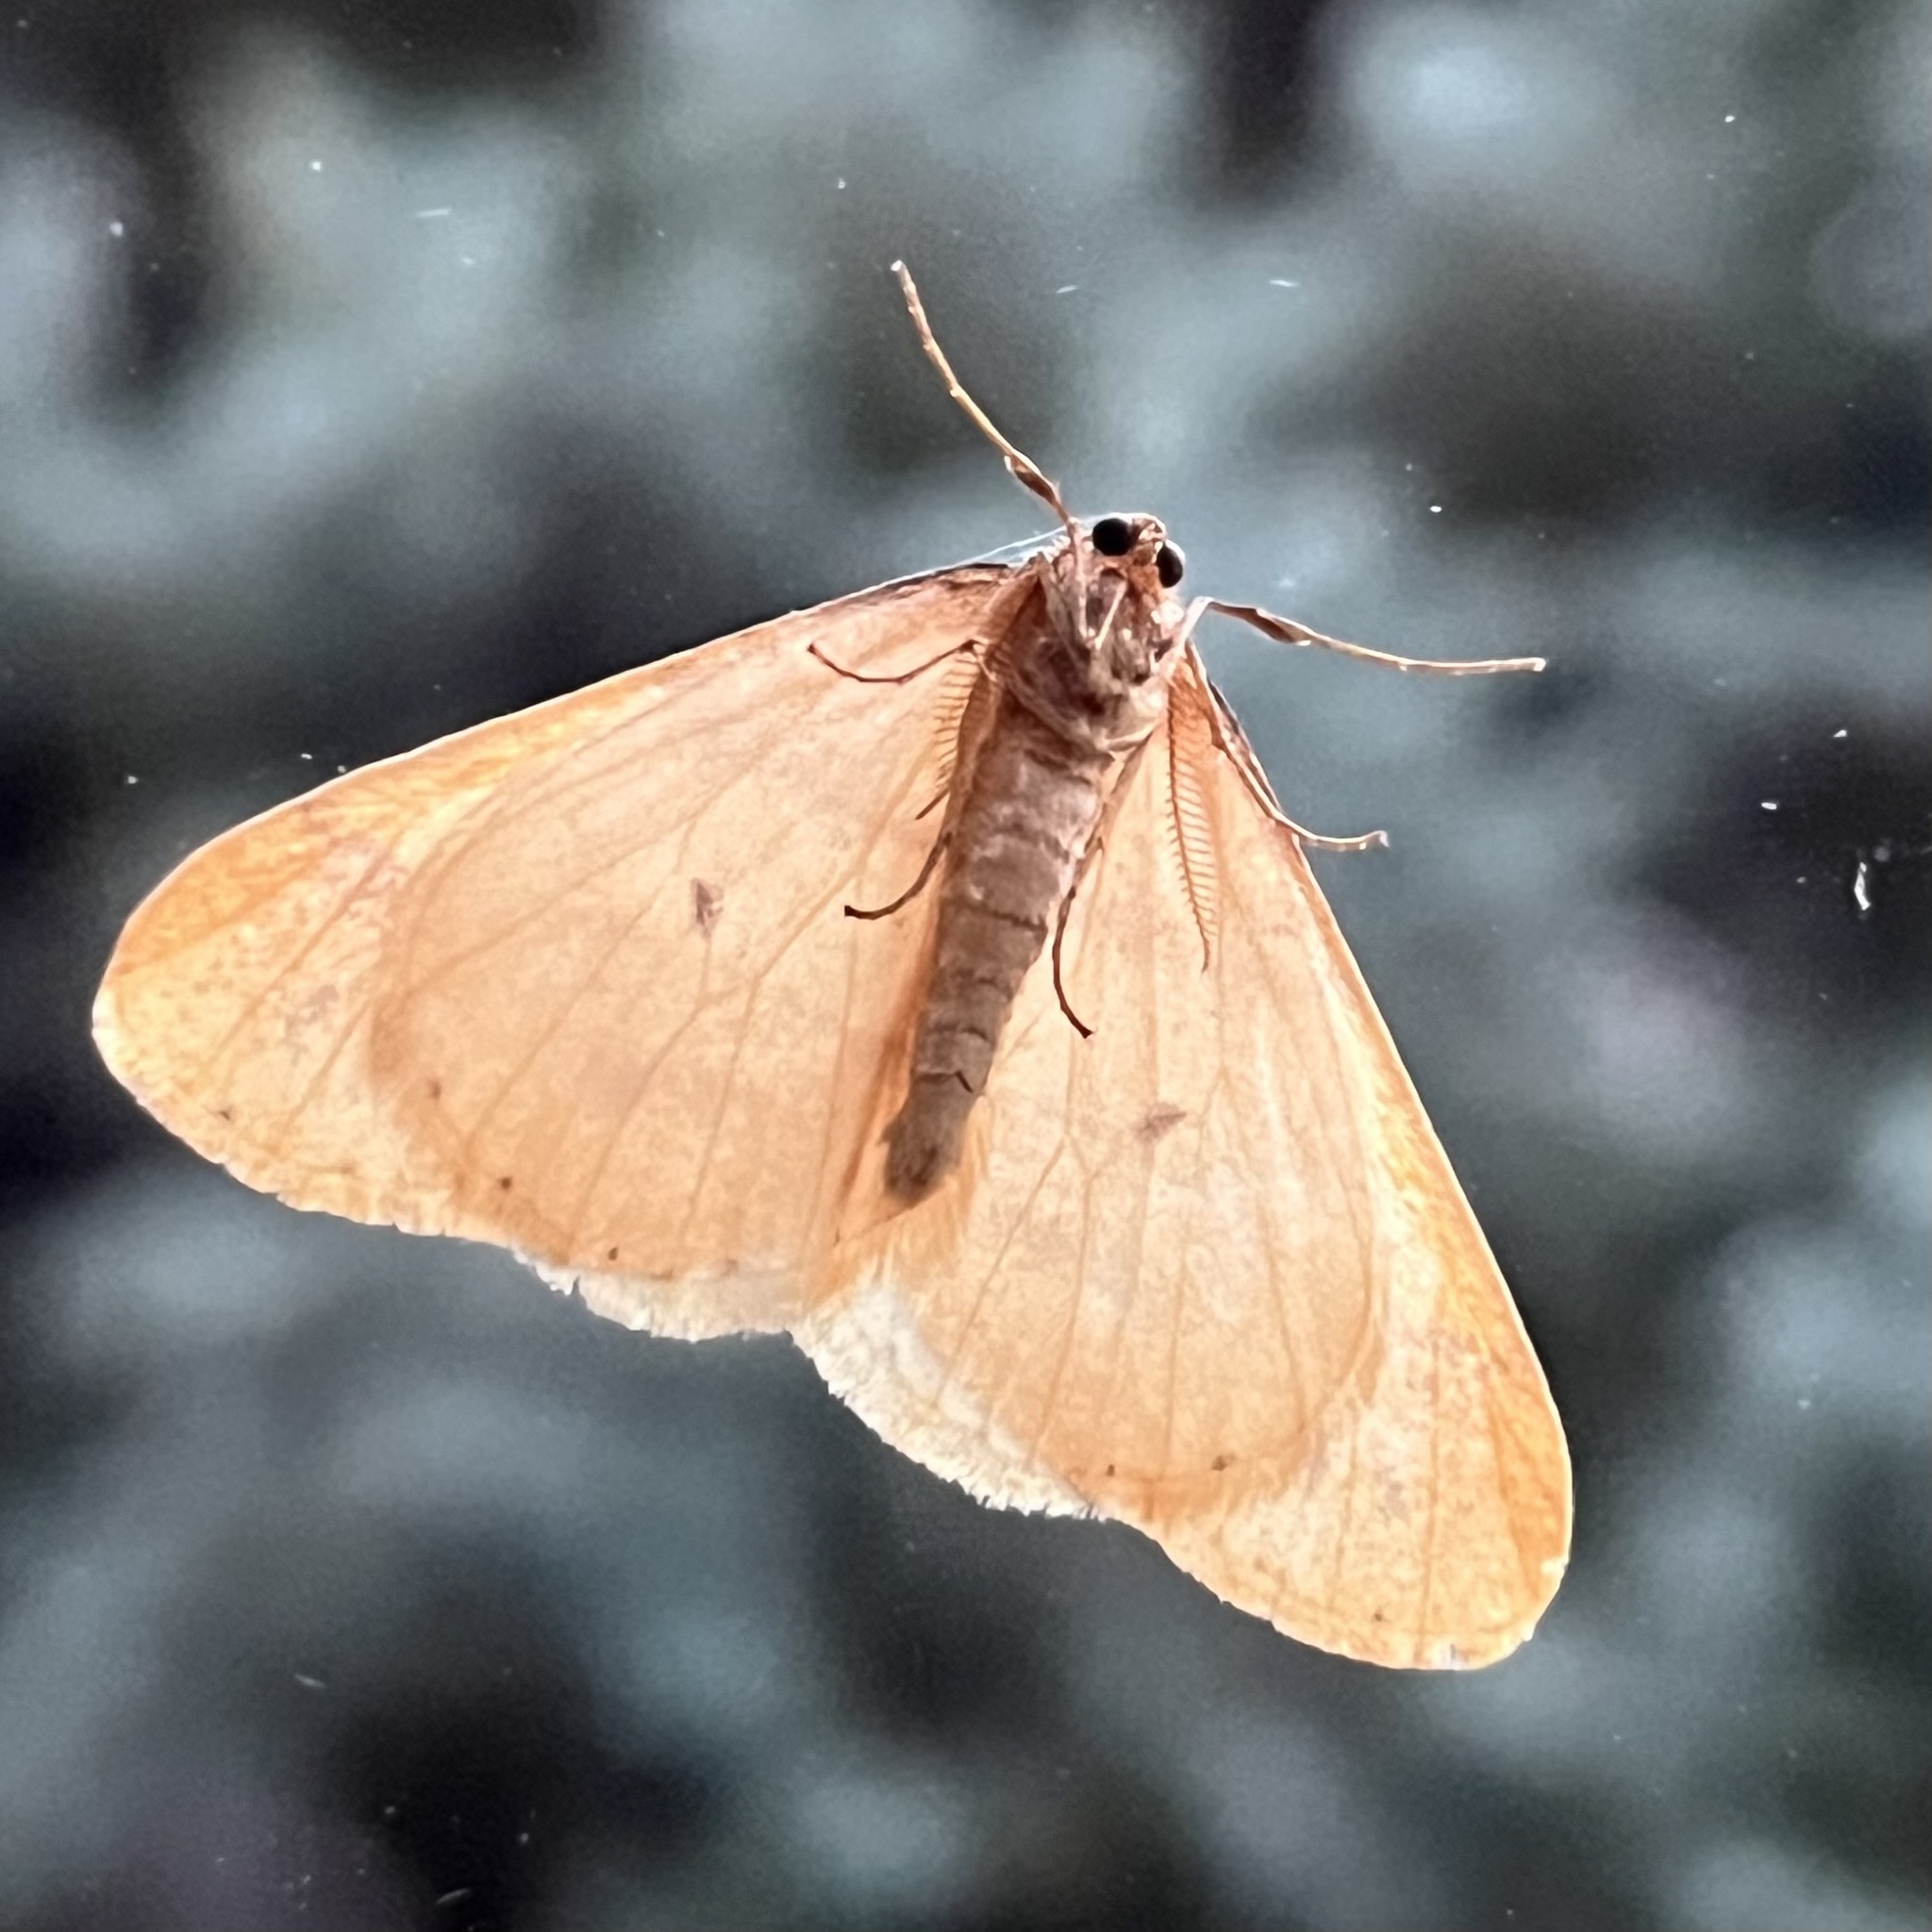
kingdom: Animalia
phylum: Arthropoda
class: Insecta
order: Lepidoptera
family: Geometridae
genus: Agriopis
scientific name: Agriopis aurantiaria
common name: Scarce umber
